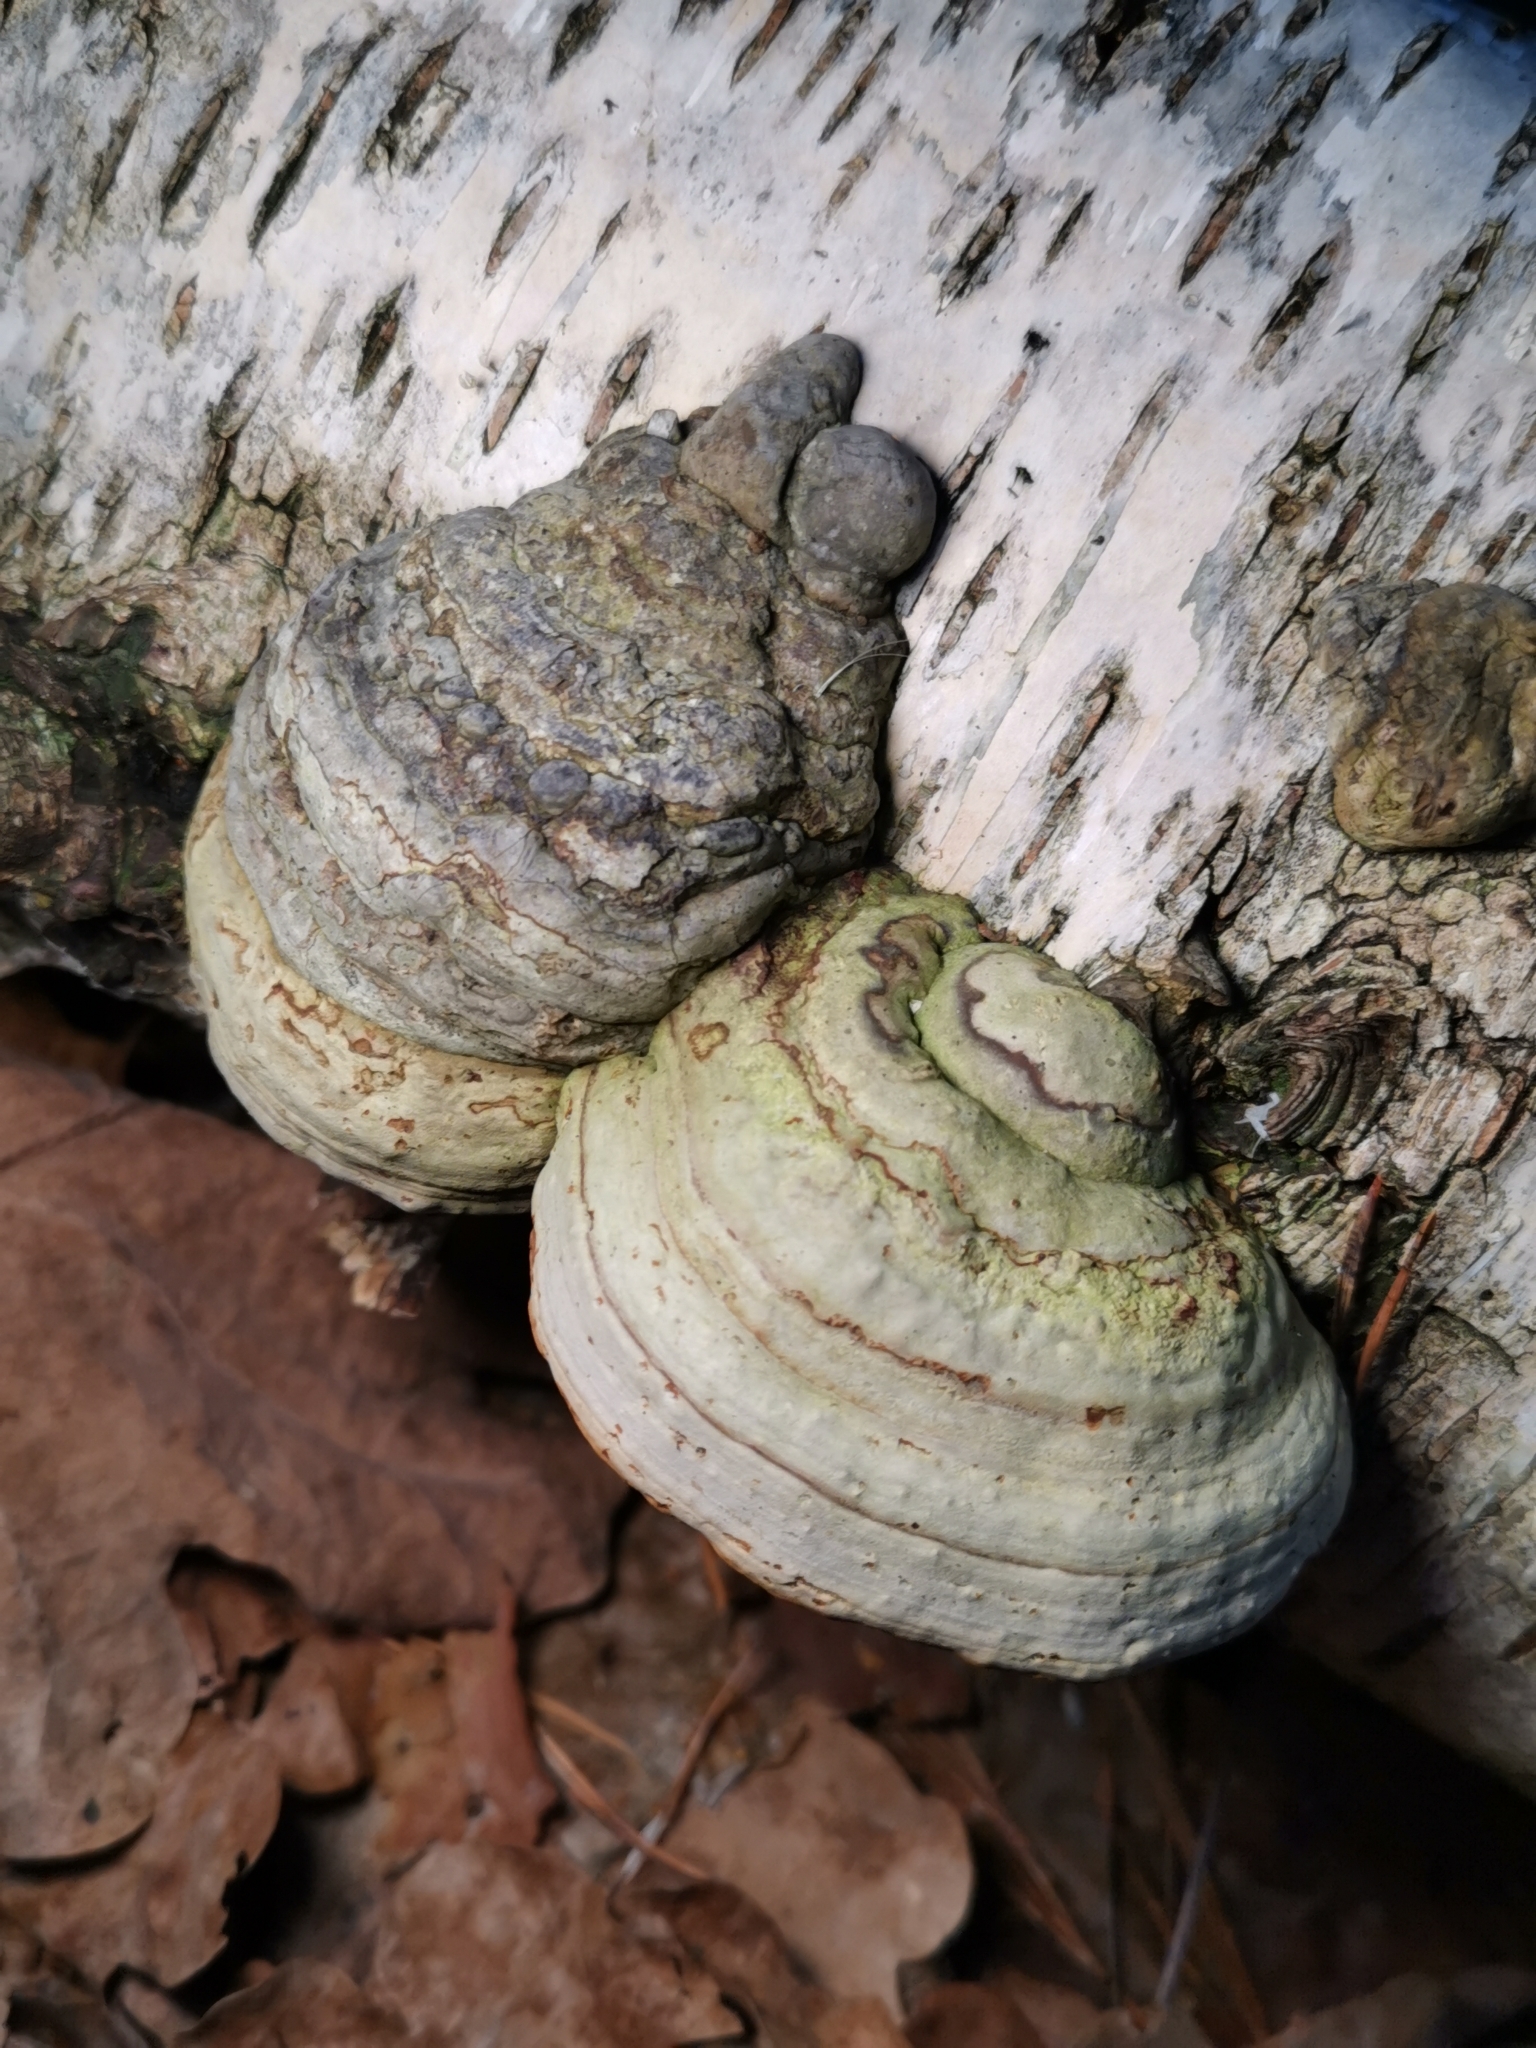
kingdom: Fungi
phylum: Basidiomycota
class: Agaricomycetes
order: Polyporales
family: Polyporaceae
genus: Fomes
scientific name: Fomes fomentarius
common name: Hoof fungus
